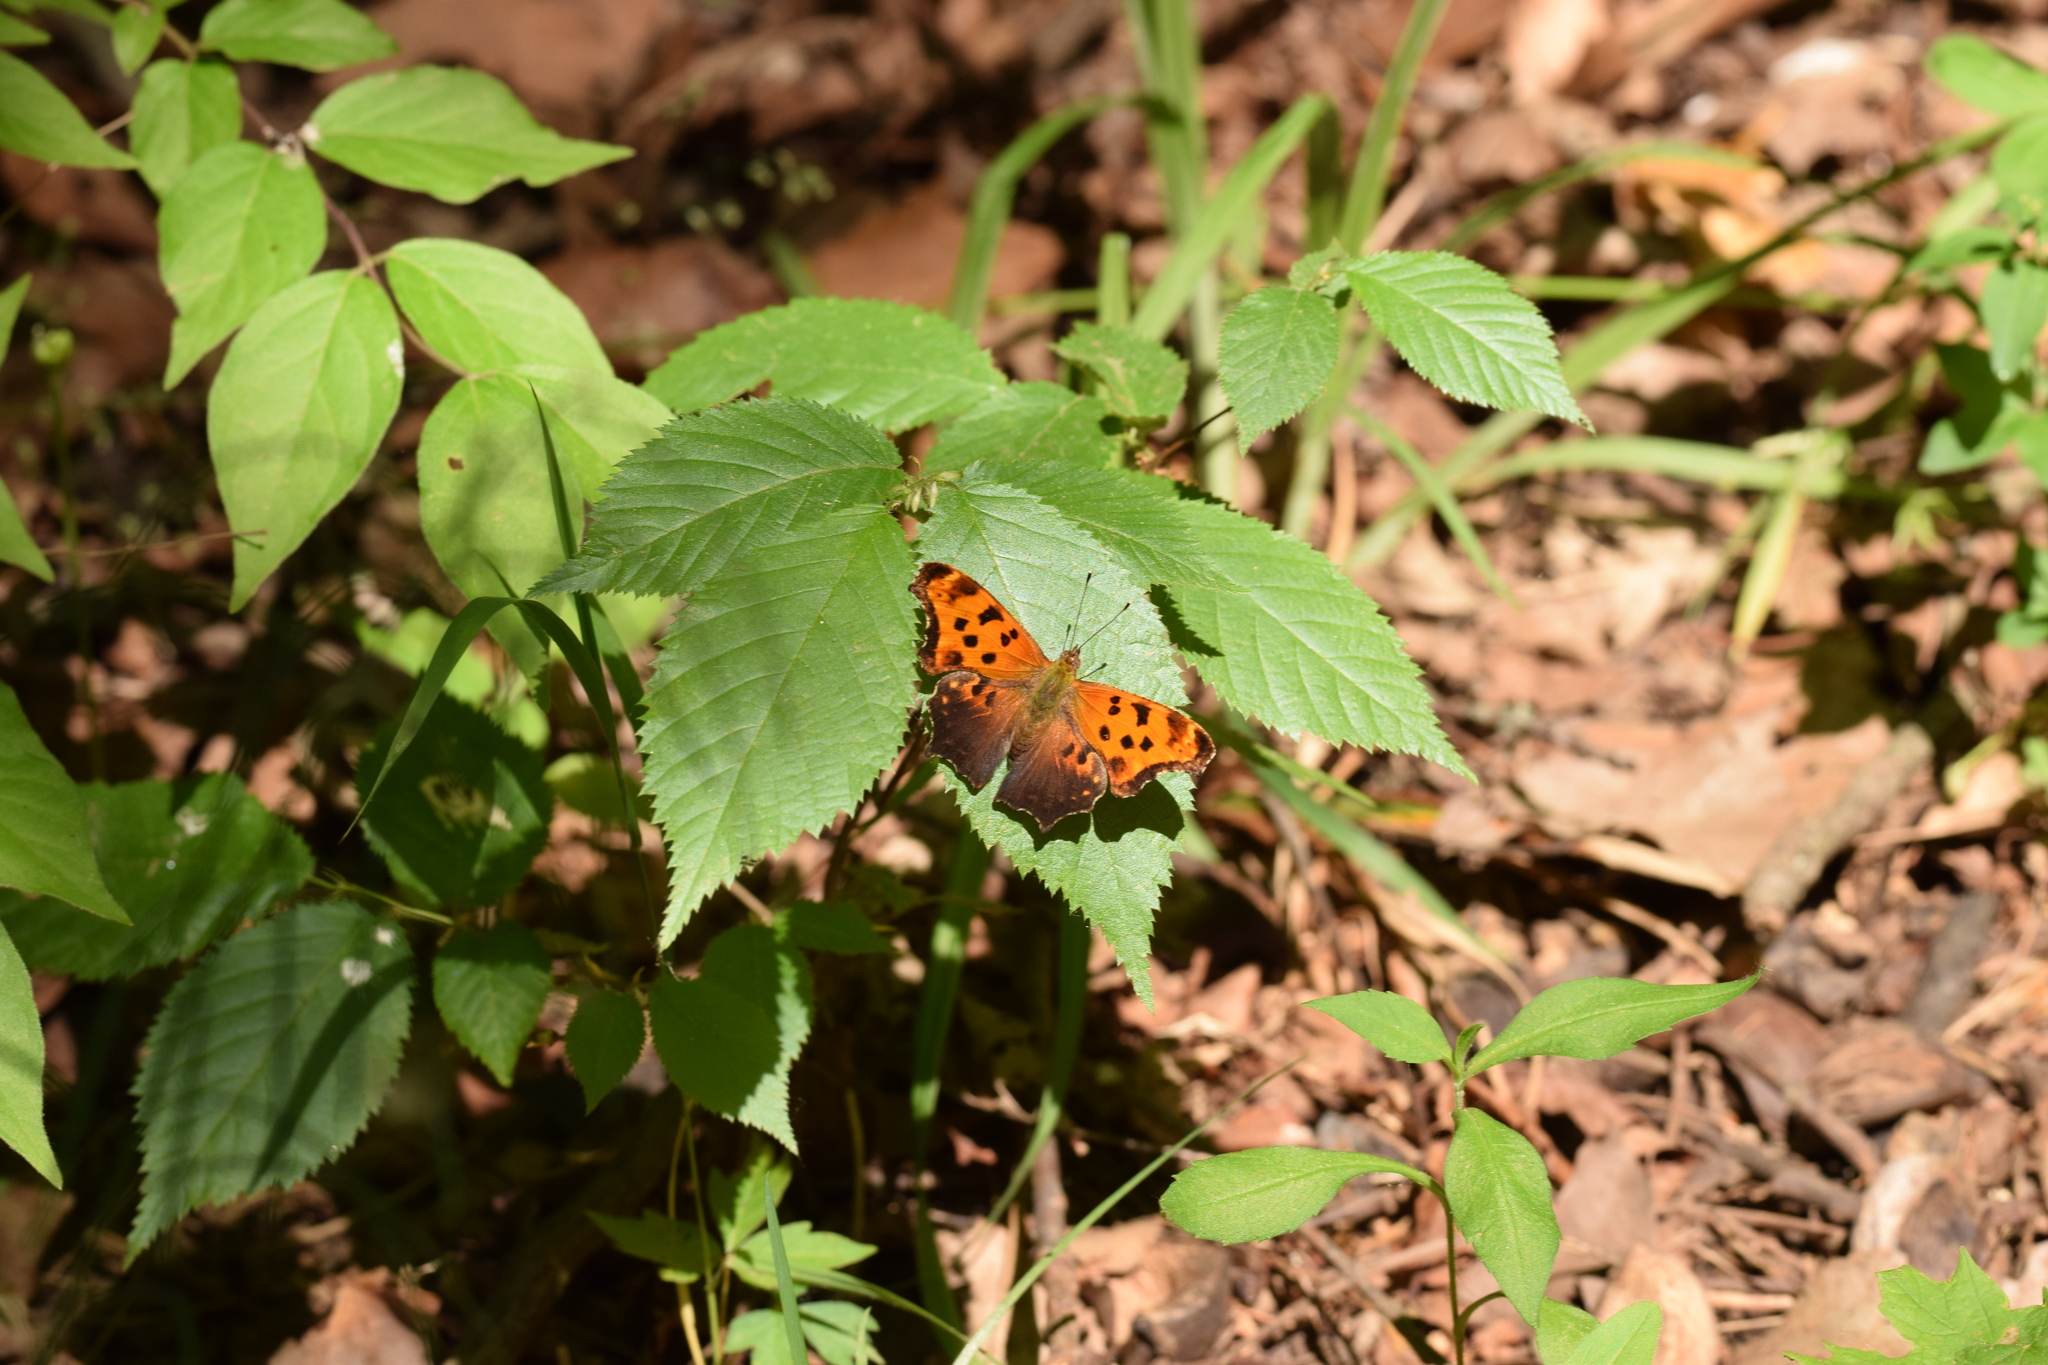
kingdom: Animalia
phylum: Arthropoda
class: Insecta
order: Lepidoptera
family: Nymphalidae
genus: Polygonia
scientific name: Polygonia comma
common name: Eastern comma
